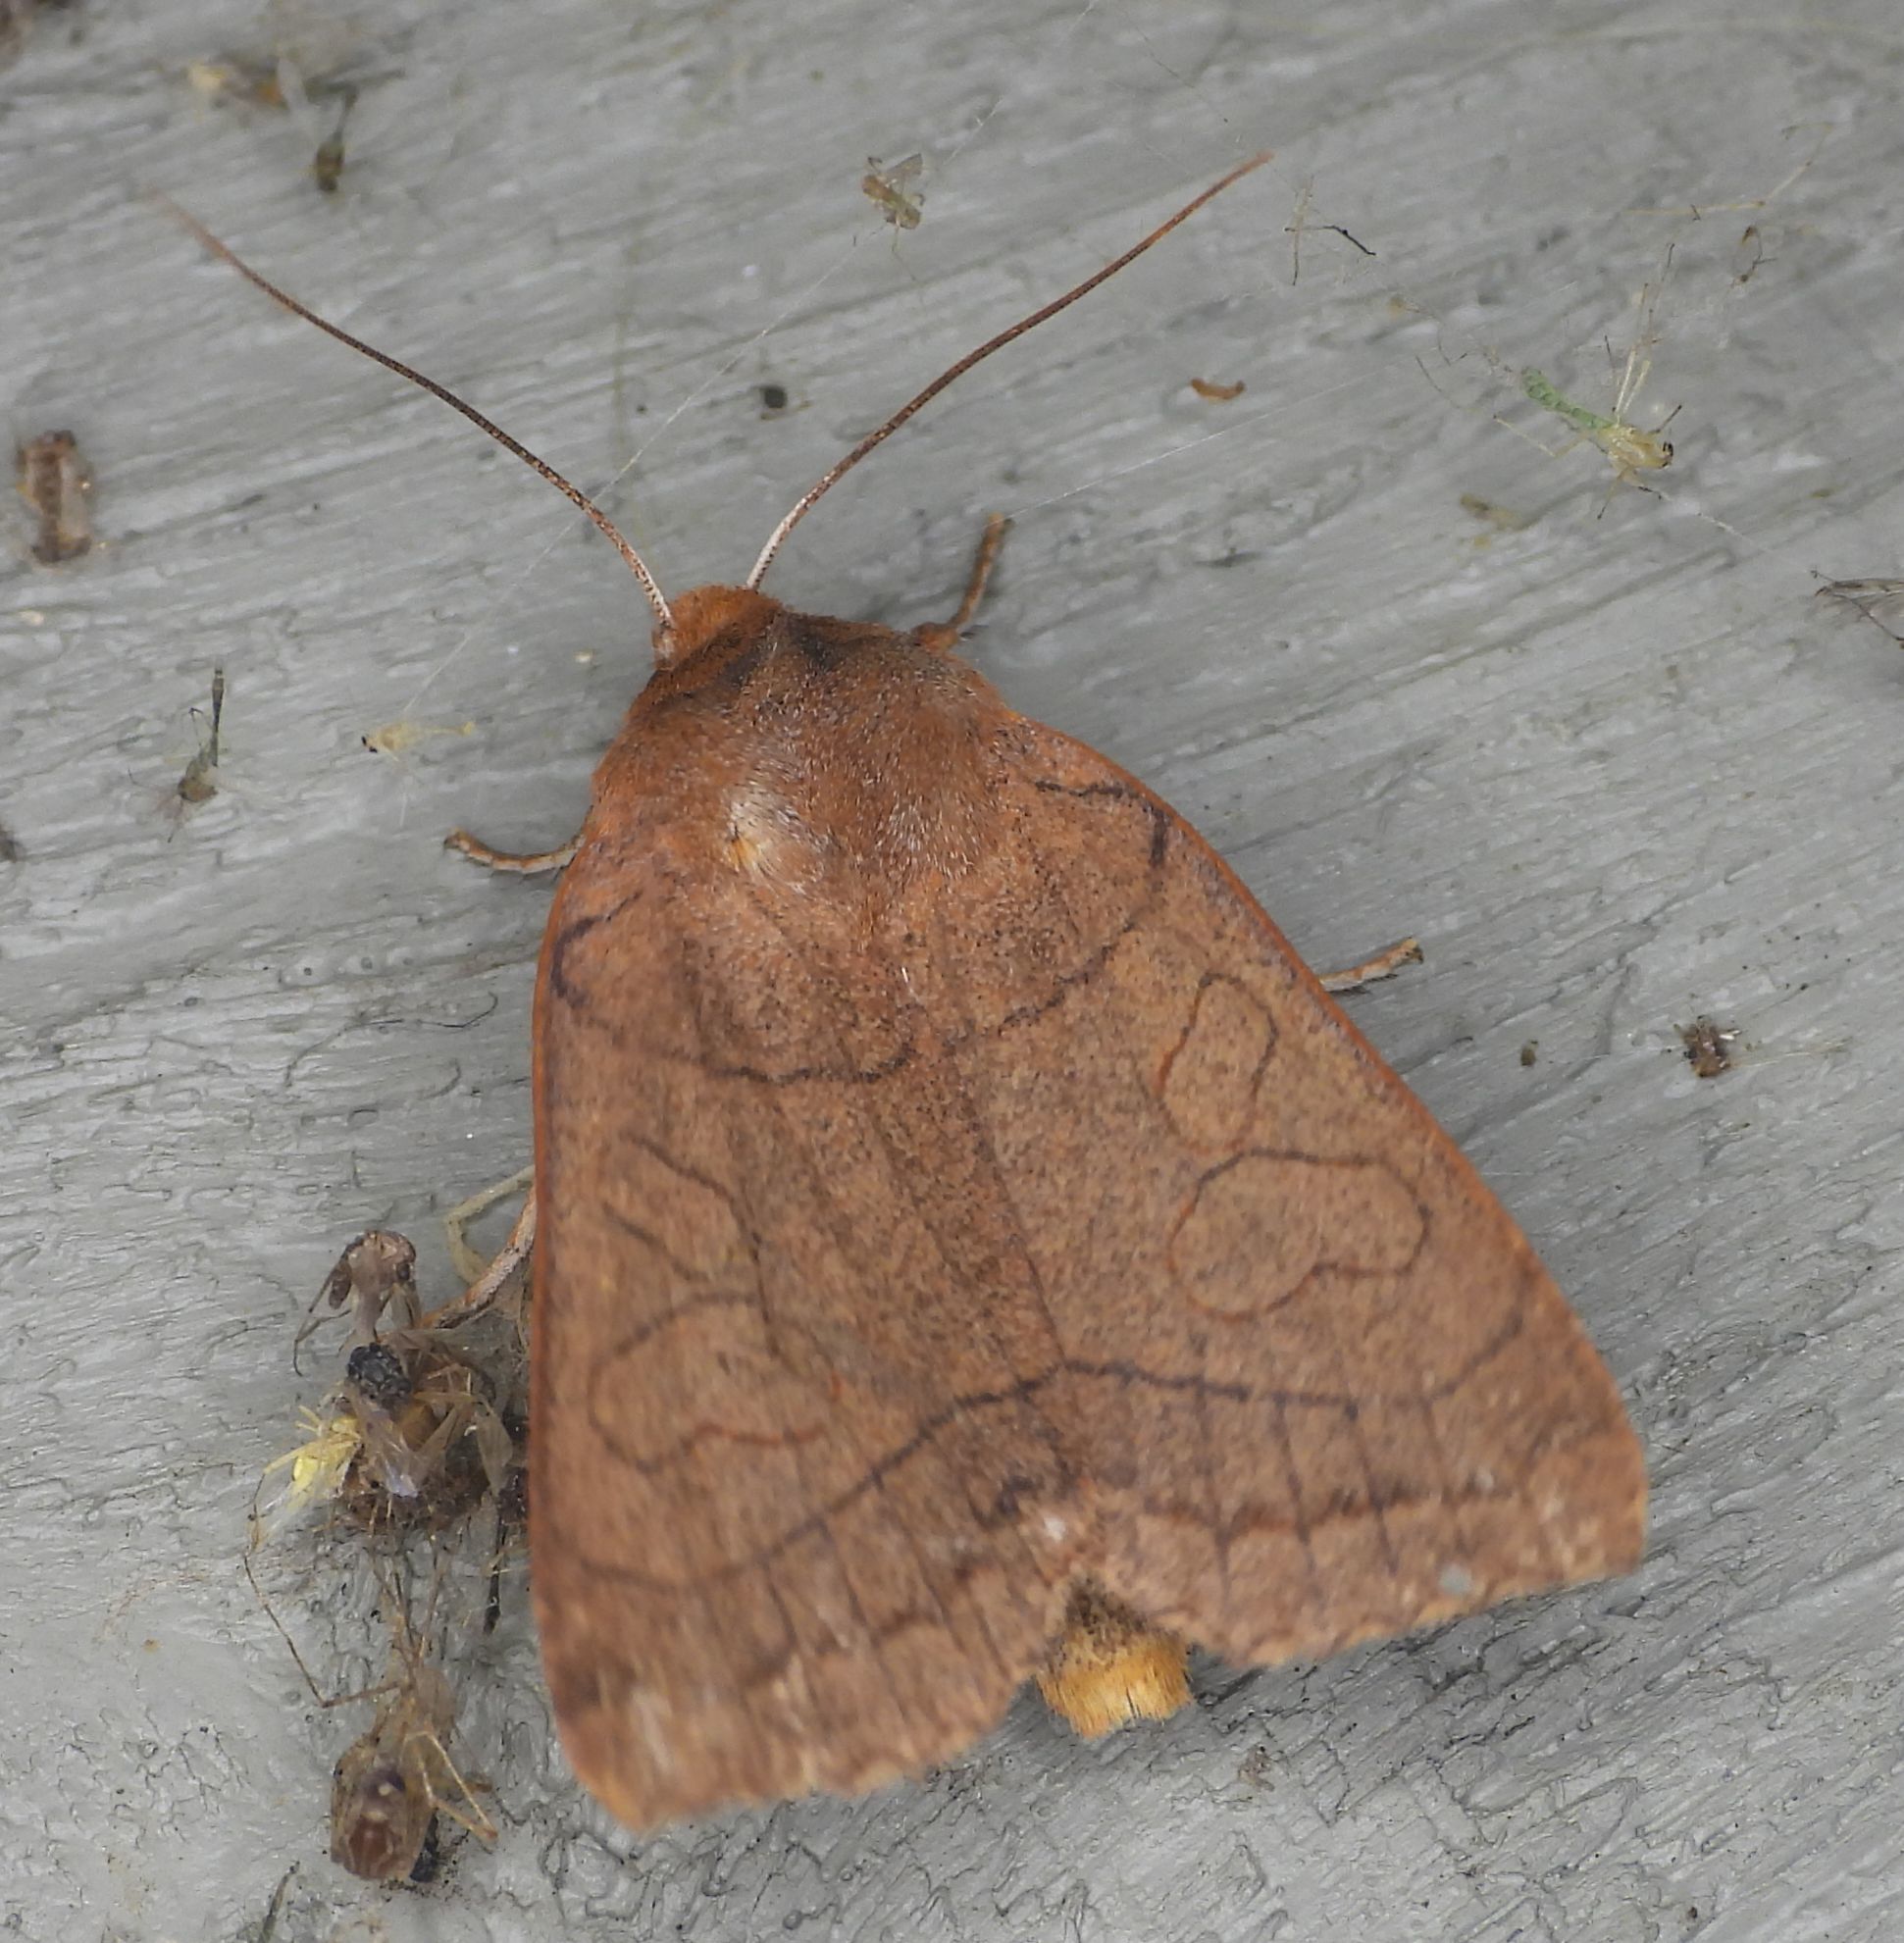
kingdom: Animalia
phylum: Arthropoda
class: Insecta
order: Lepidoptera
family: Noctuidae
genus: Metaxaglaea
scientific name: Metaxaglaea inulta
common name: Unsated sallow
